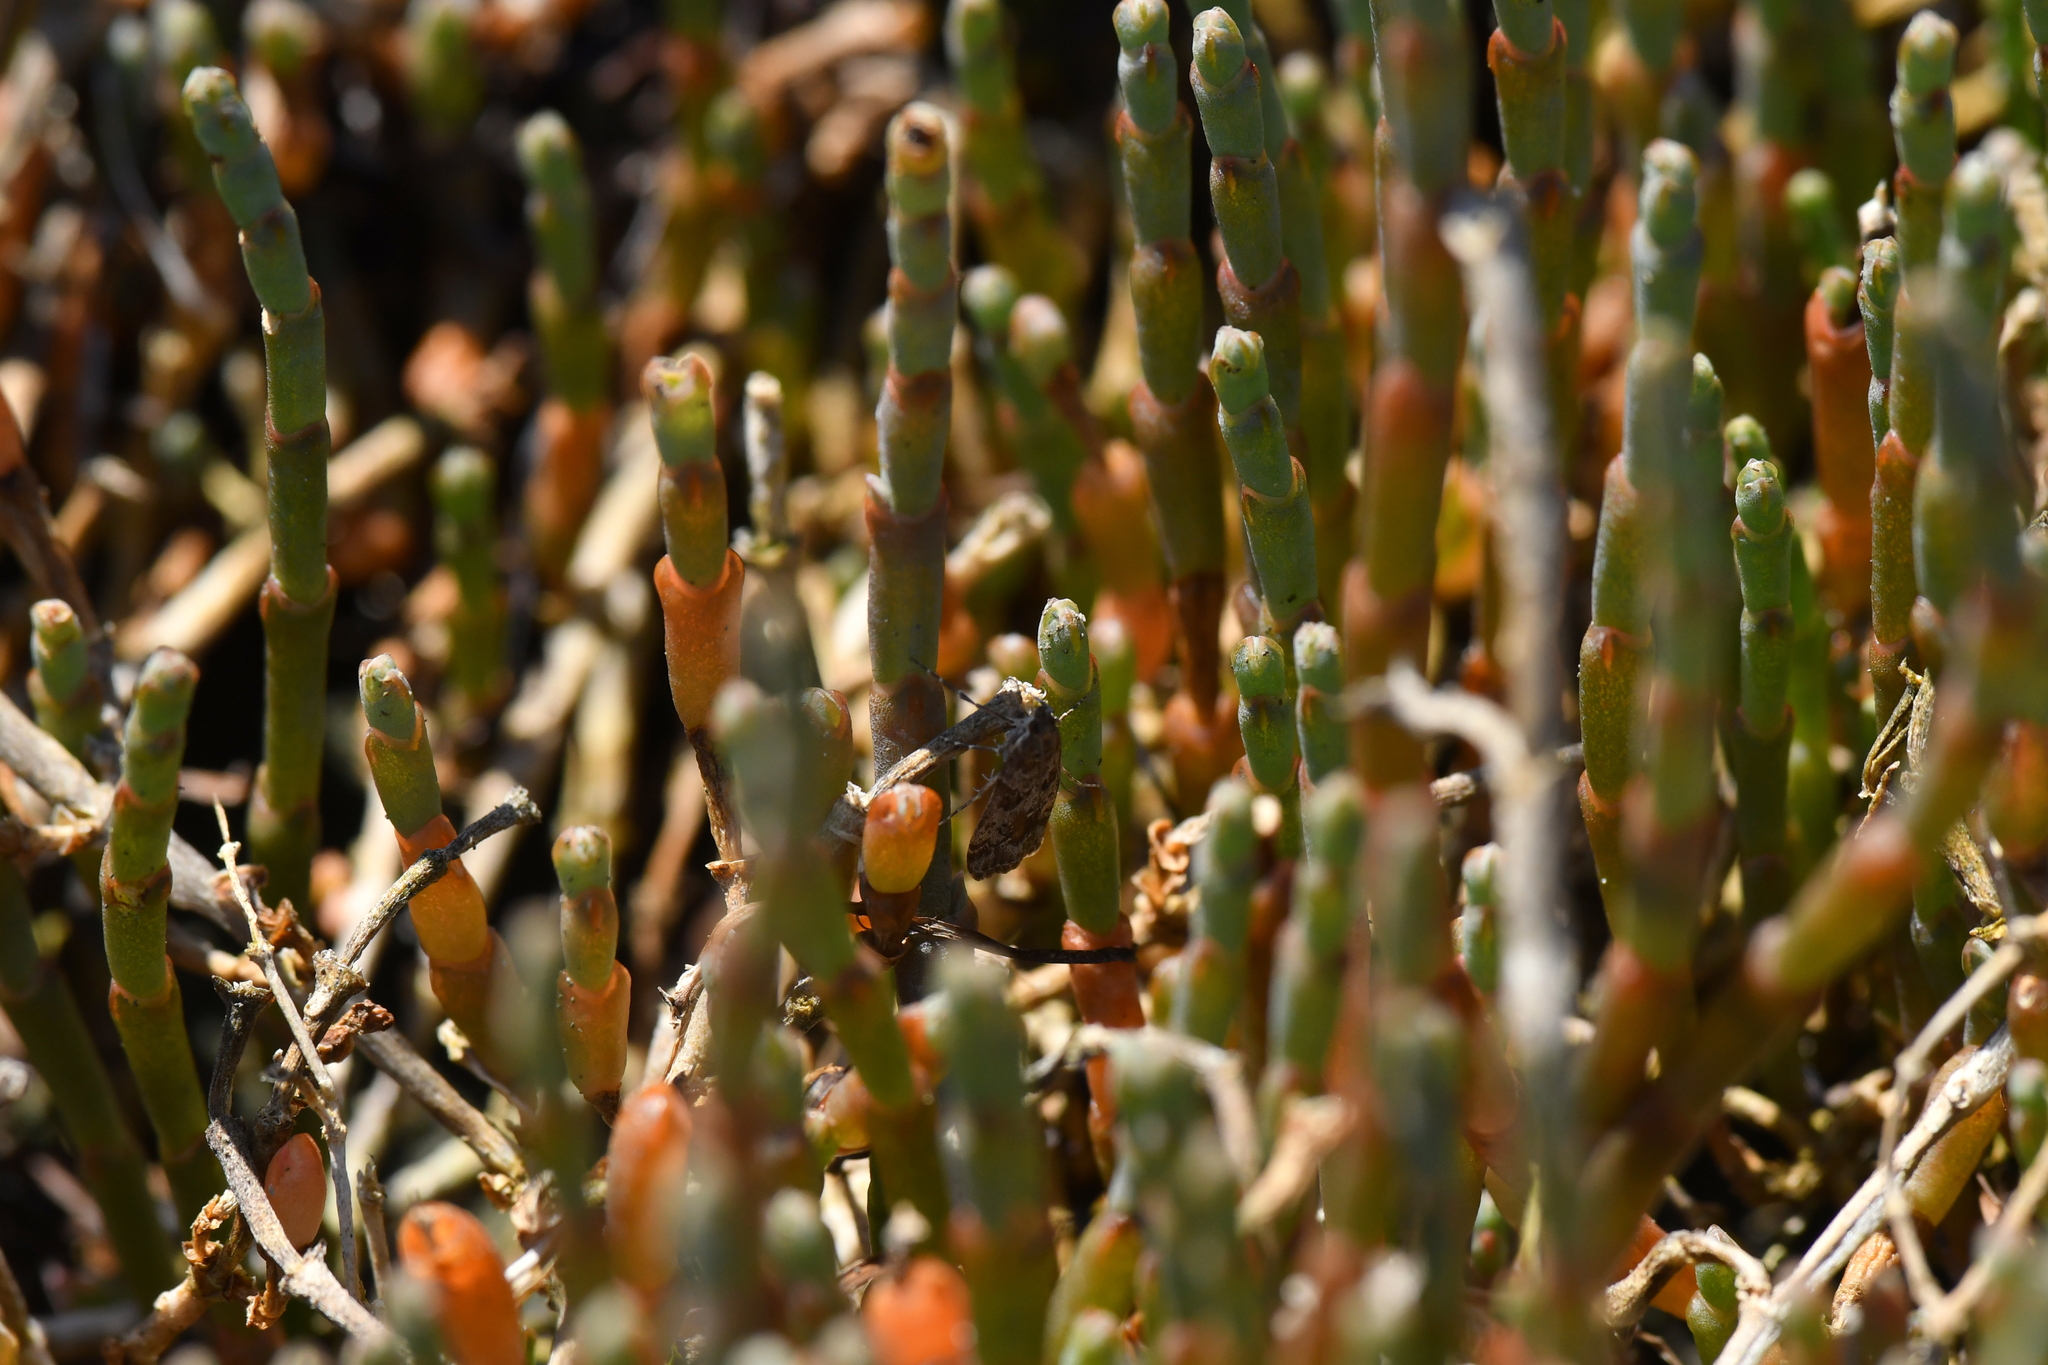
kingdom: Plantae
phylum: Tracheophyta
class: Magnoliopsida
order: Caryophyllales
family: Amaranthaceae
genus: Salicornia
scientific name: Salicornia quinqueflora
